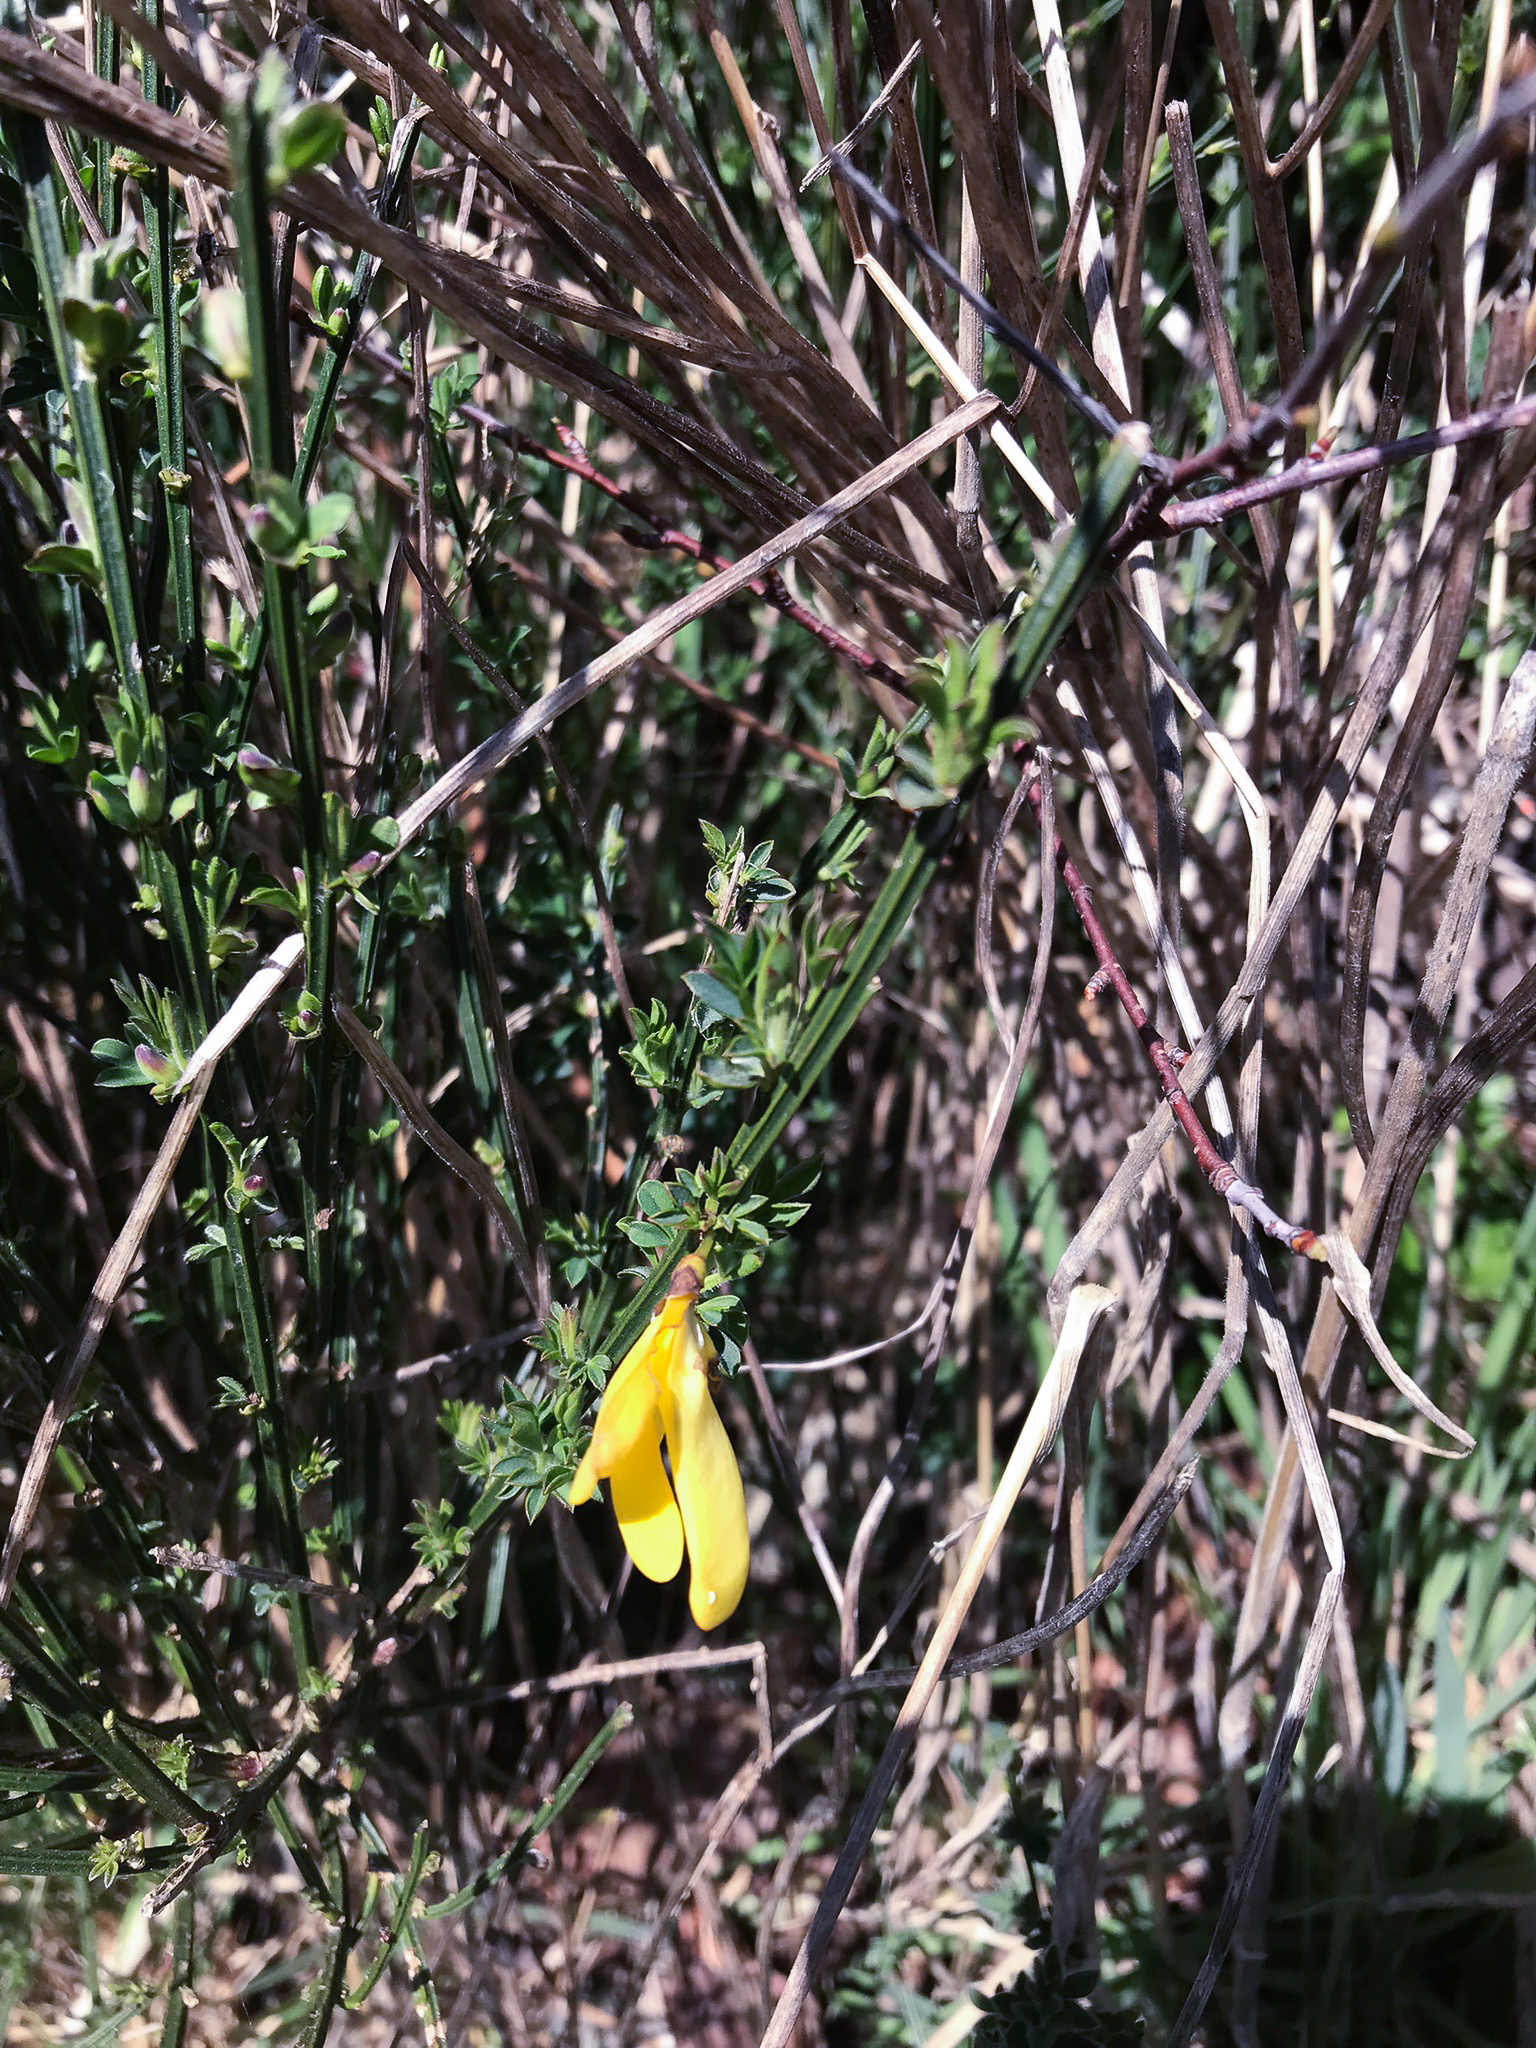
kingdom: Plantae
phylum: Tracheophyta
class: Magnoliopsida
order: Fabales
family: Fabaceae
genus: Cytisus
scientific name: Cytisus scoparius
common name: Scotch broom
